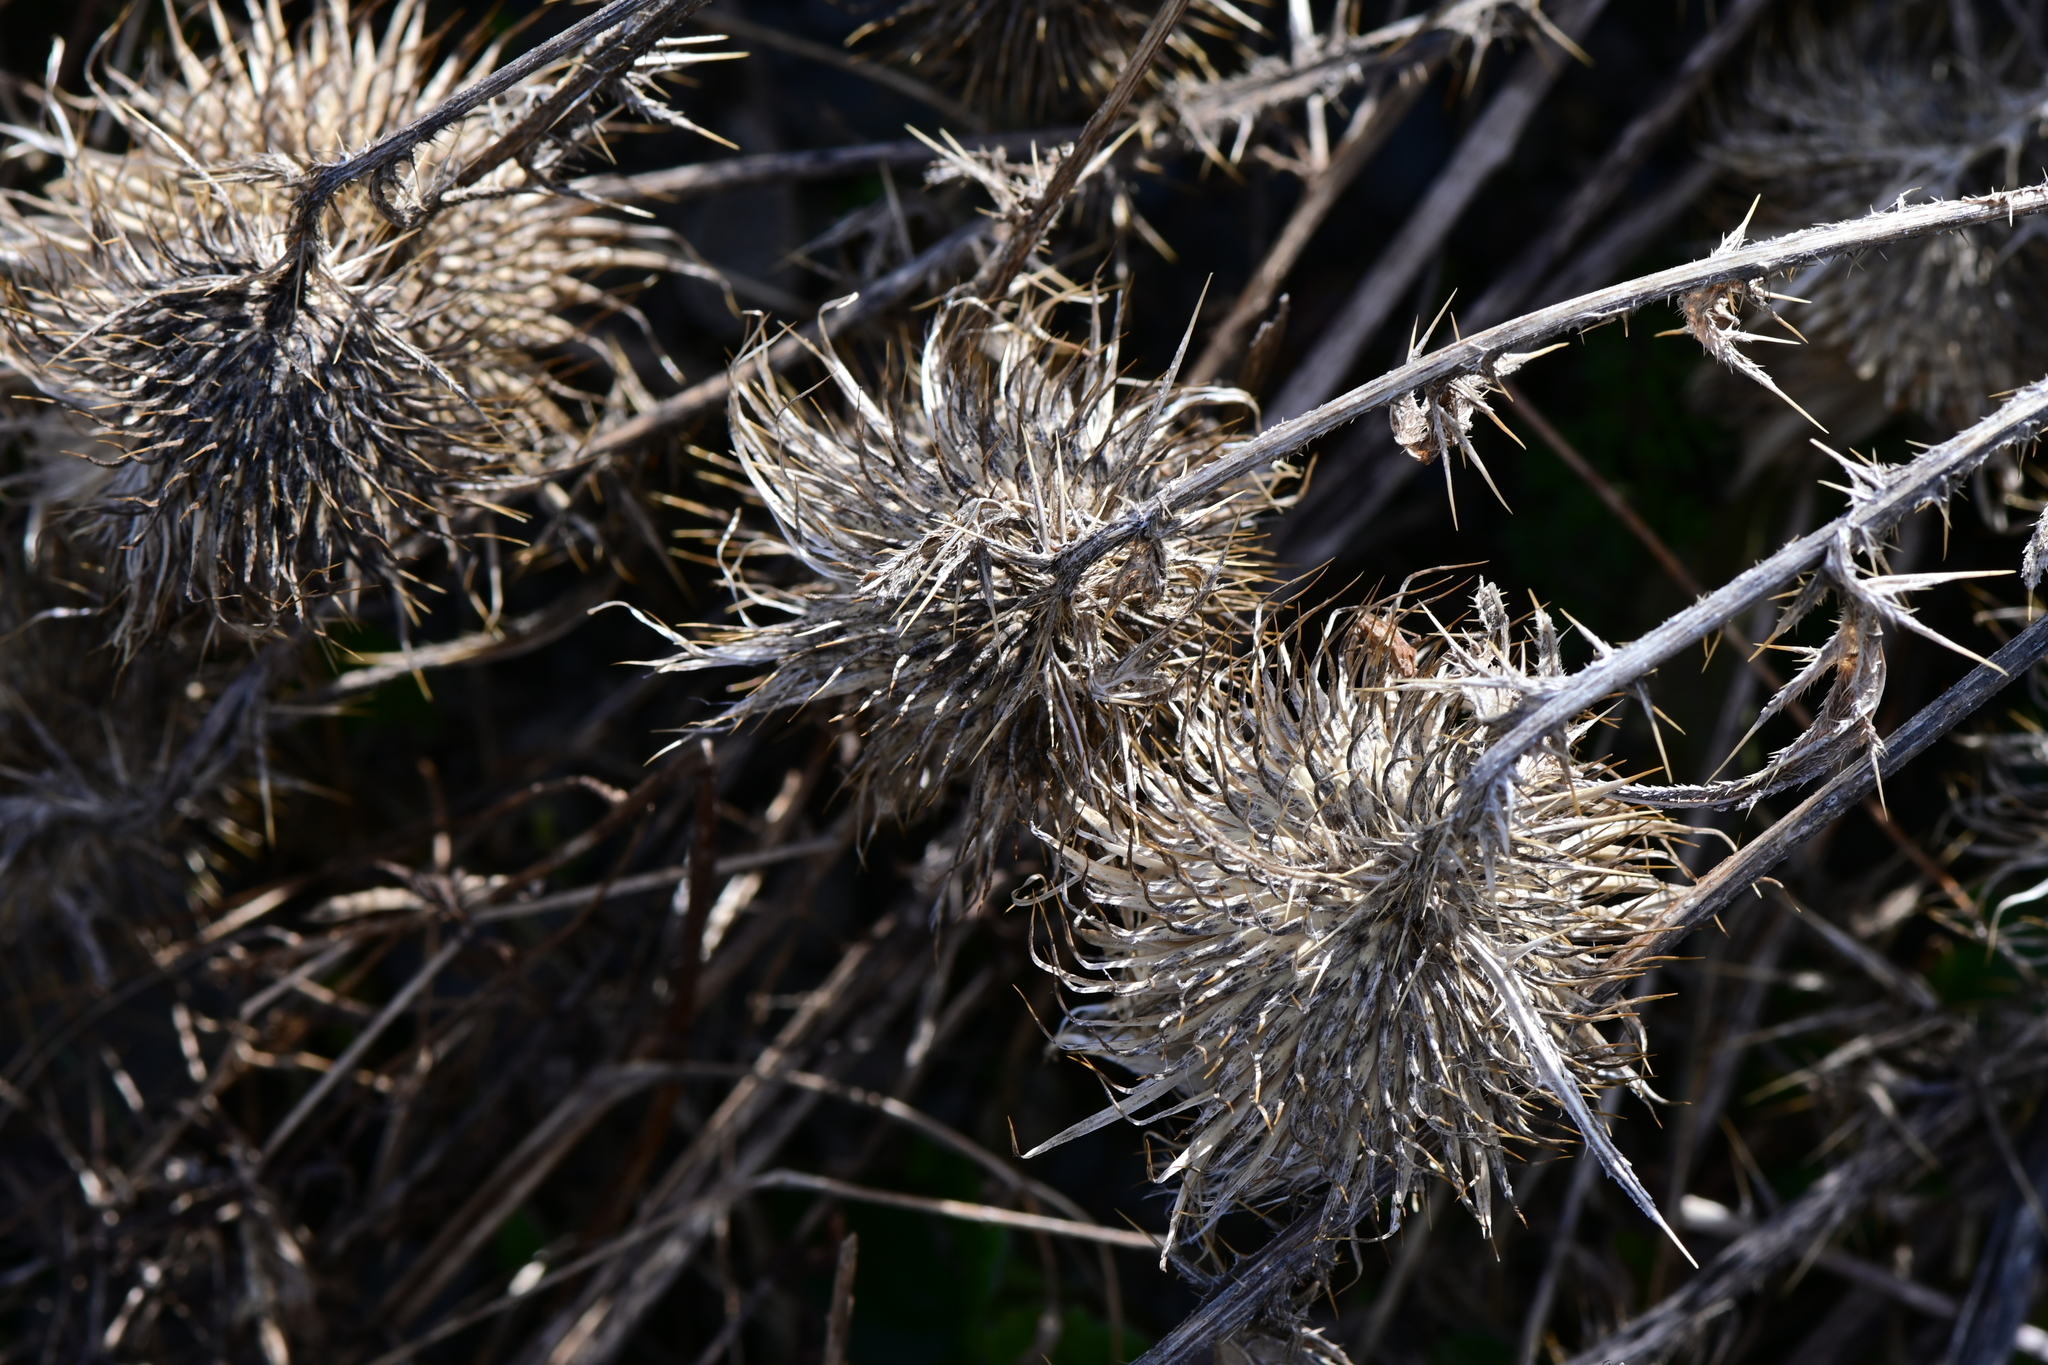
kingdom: Plantae
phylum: Tracheophyta
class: Magnoliopsida
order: Asterales
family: Asteraceae
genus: Cirsium
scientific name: Cirsium vulgare
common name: Bull thistle
